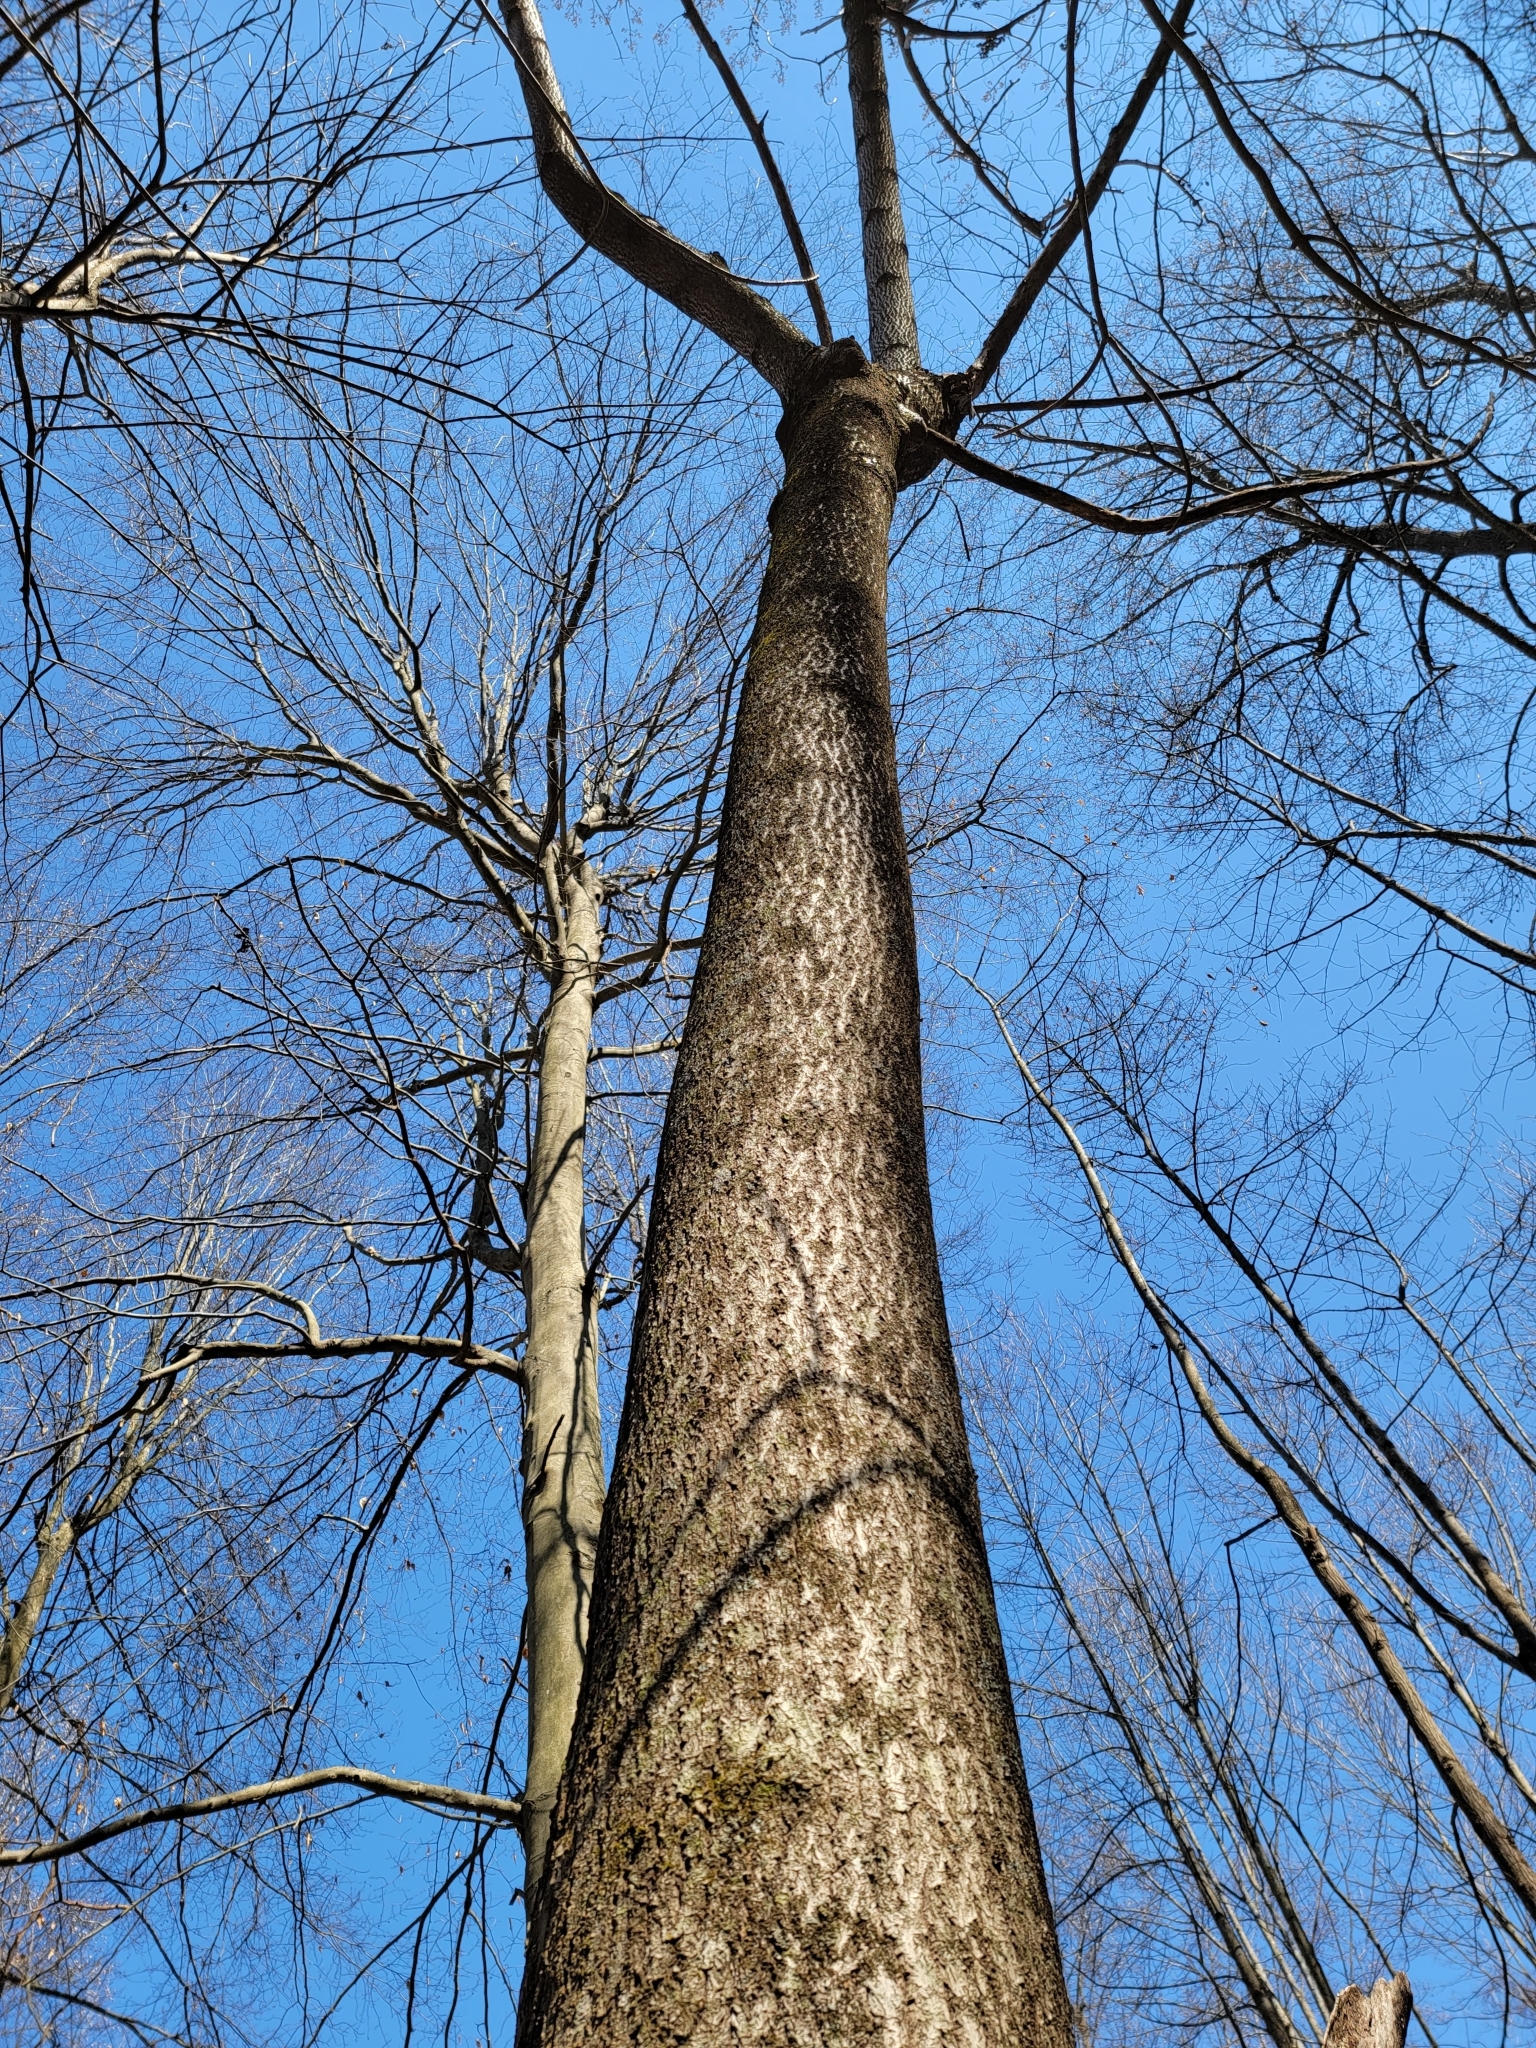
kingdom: Plantae
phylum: Tracheophyta
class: Magnoliopsida
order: Lamiales
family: Paulowniaceae
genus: Paulownia
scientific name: Paulownia tomentosa
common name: Foxglove-tree
